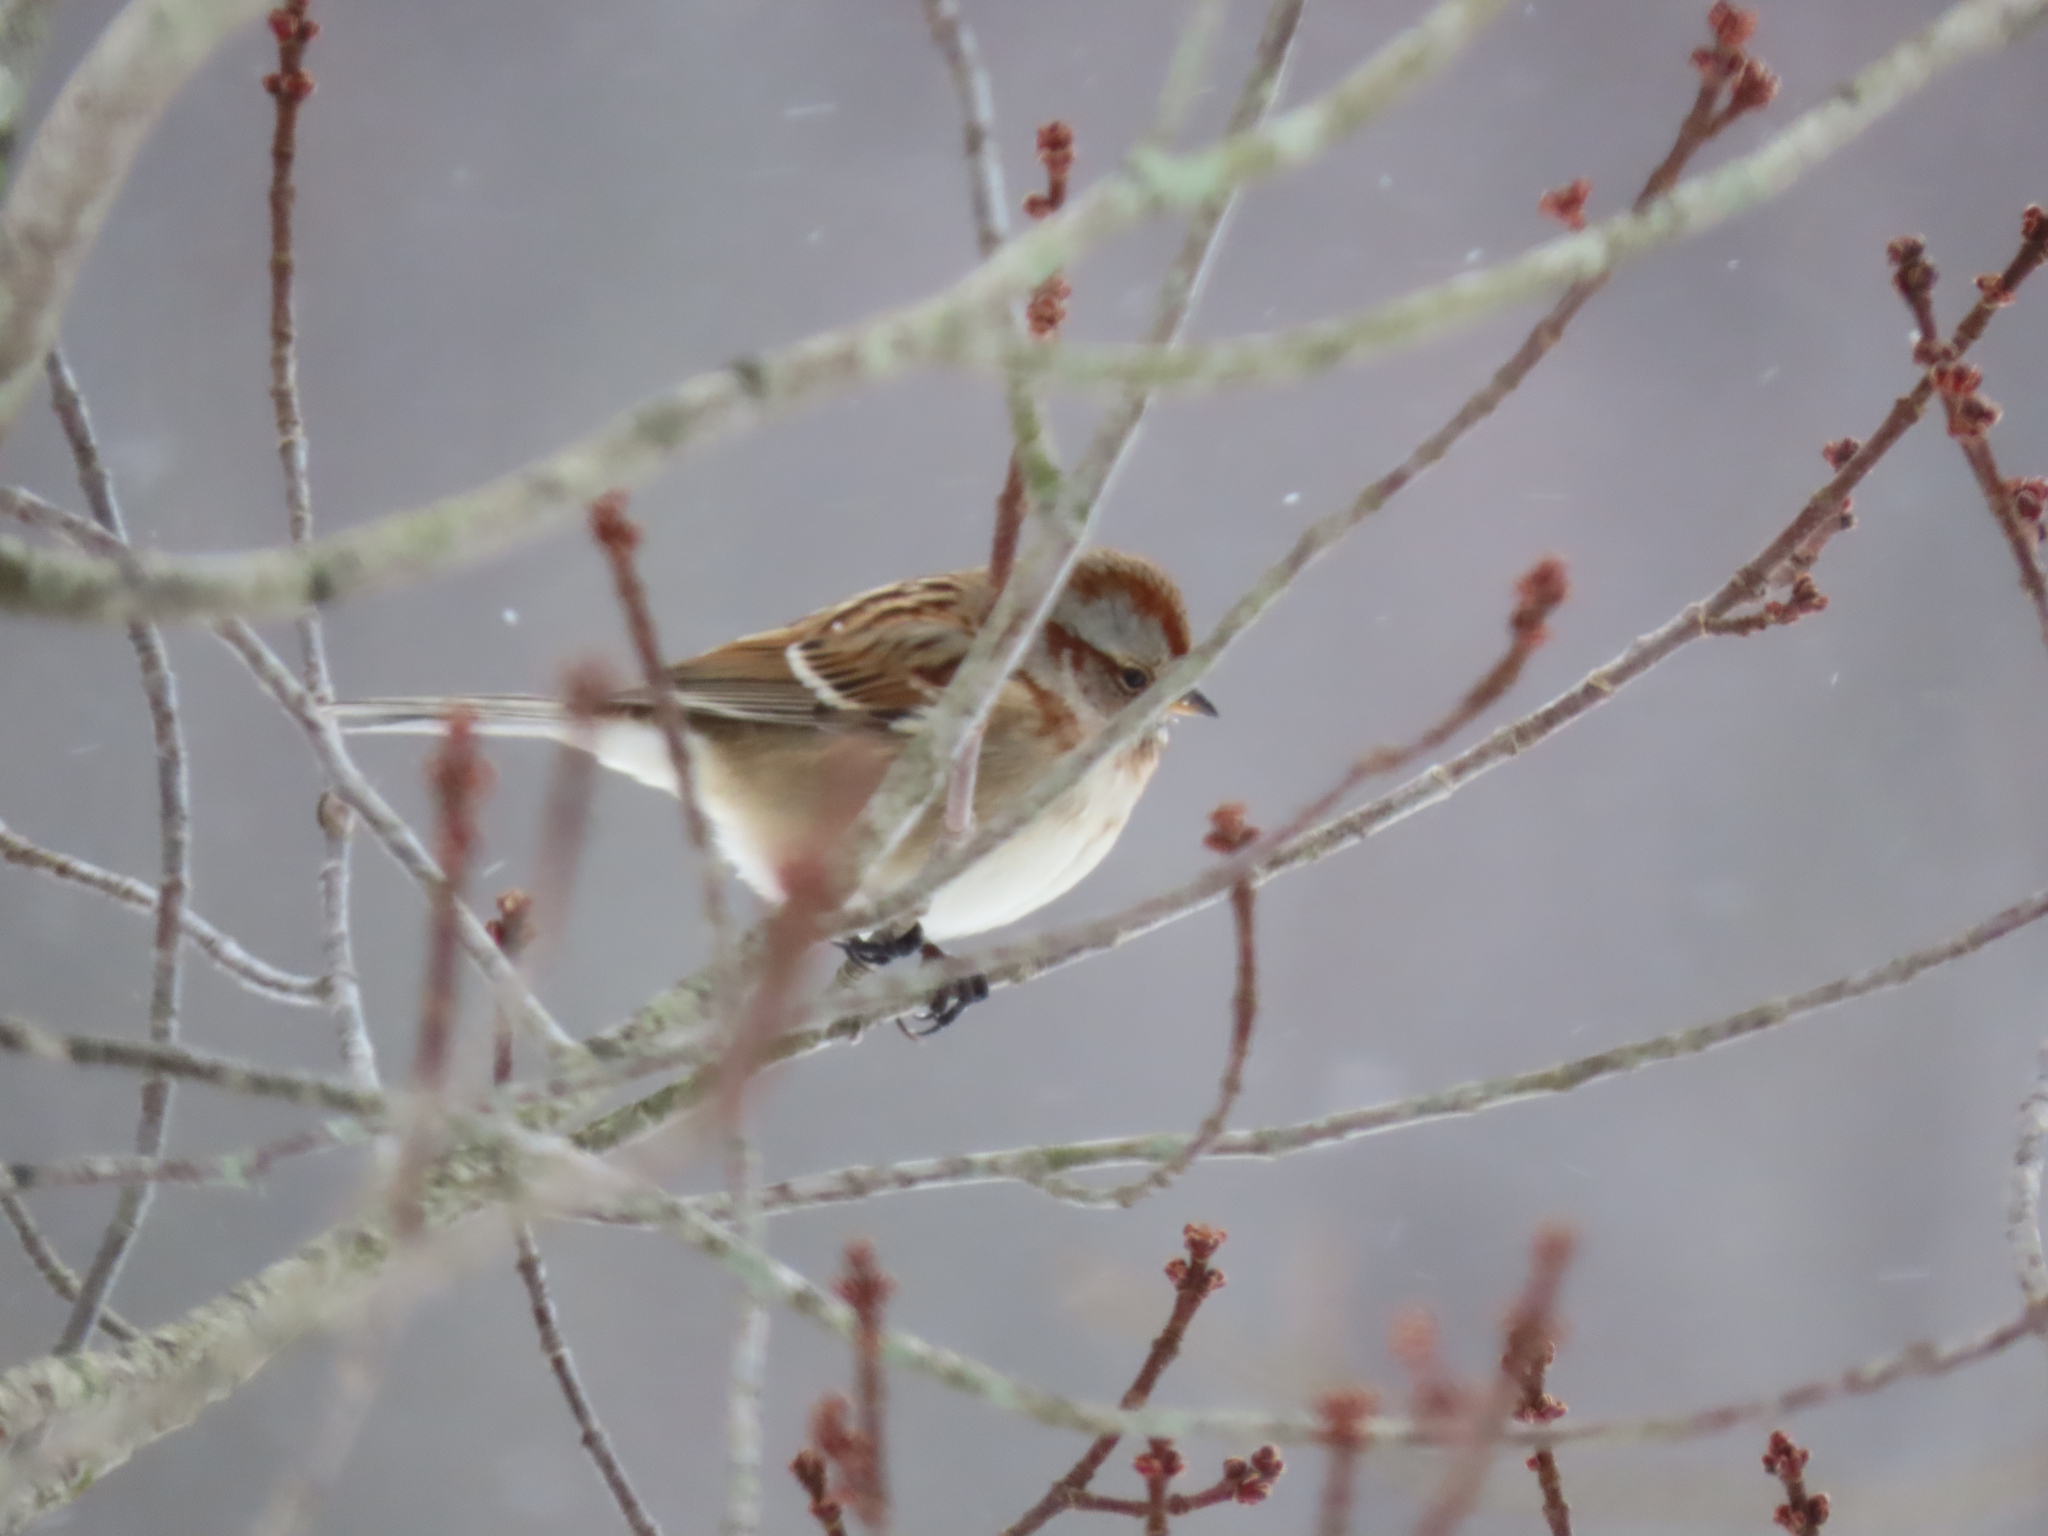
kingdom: Animalia
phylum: Chordata
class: Aves
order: Passeriformes
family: Passerellidae
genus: Spizelloides
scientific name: Spizelloides arborea
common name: American tree sparrow
